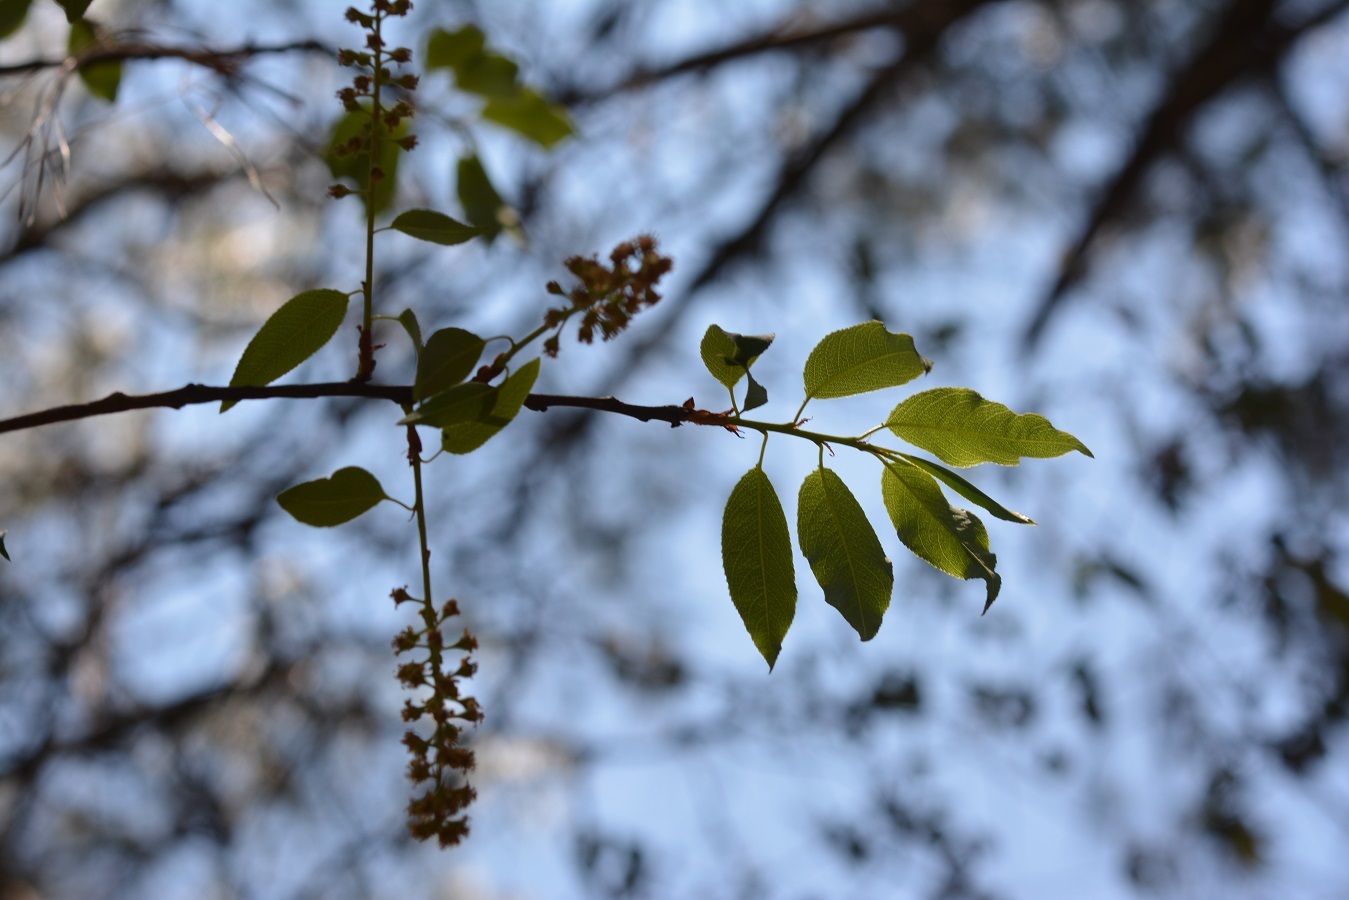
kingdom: Plantae
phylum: Tracheophyta
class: Magnoliopsida
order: Rosales
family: Rosaceae
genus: Prunus
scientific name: Prunus serotina
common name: Black cherry
